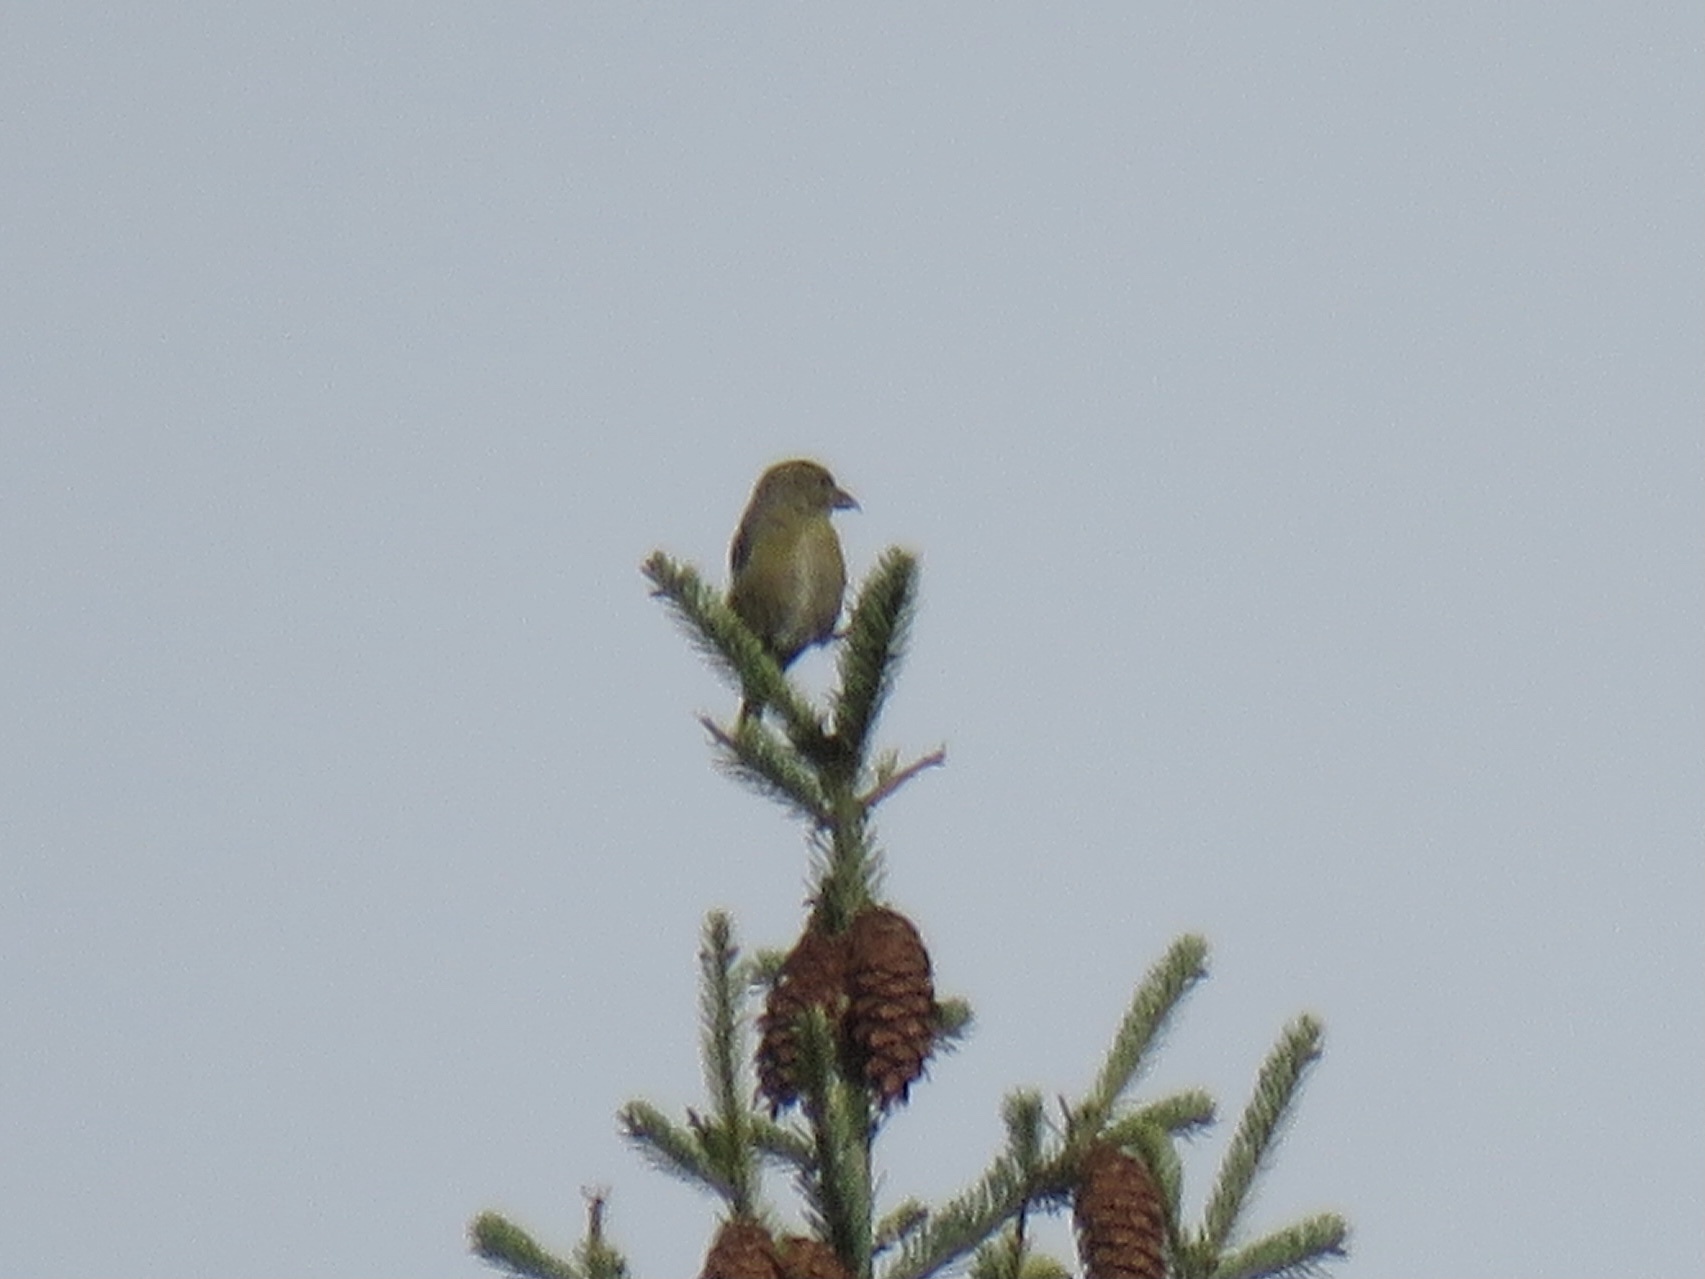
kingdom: Animalia
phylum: Chordata
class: Aves
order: Passeriformes
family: Fringillidae
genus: Loxia
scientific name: Loxia curvirostra
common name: Red crossbill
